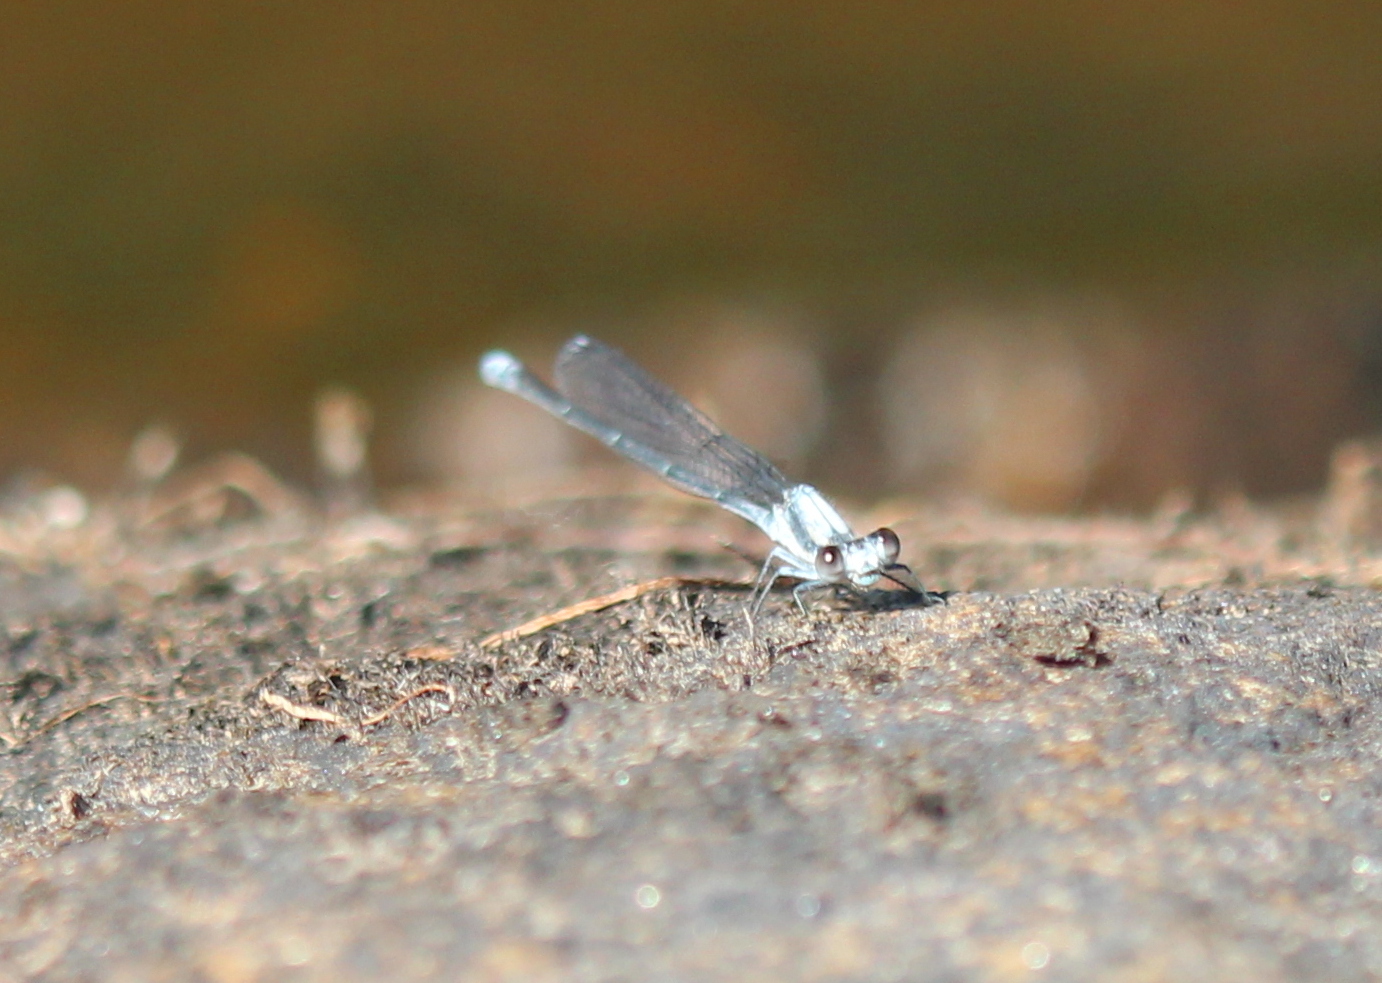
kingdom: Animalia
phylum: Arthropoda
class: Insecta
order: Odonata
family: Coenagrionidae
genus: Argia
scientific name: Argia moesta
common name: Powdered dancer
